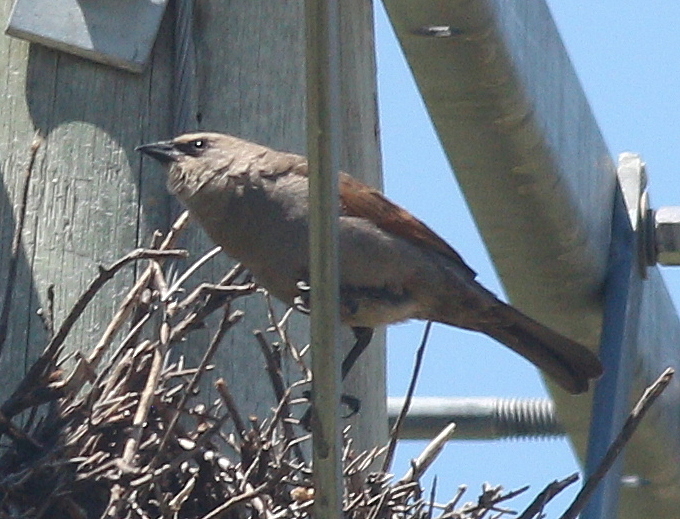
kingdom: Animalia
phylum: Chordata
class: Aves
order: Passeriformes
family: Icteridae
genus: Agelaioides
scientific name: Agelaioides badius
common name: Baywing
